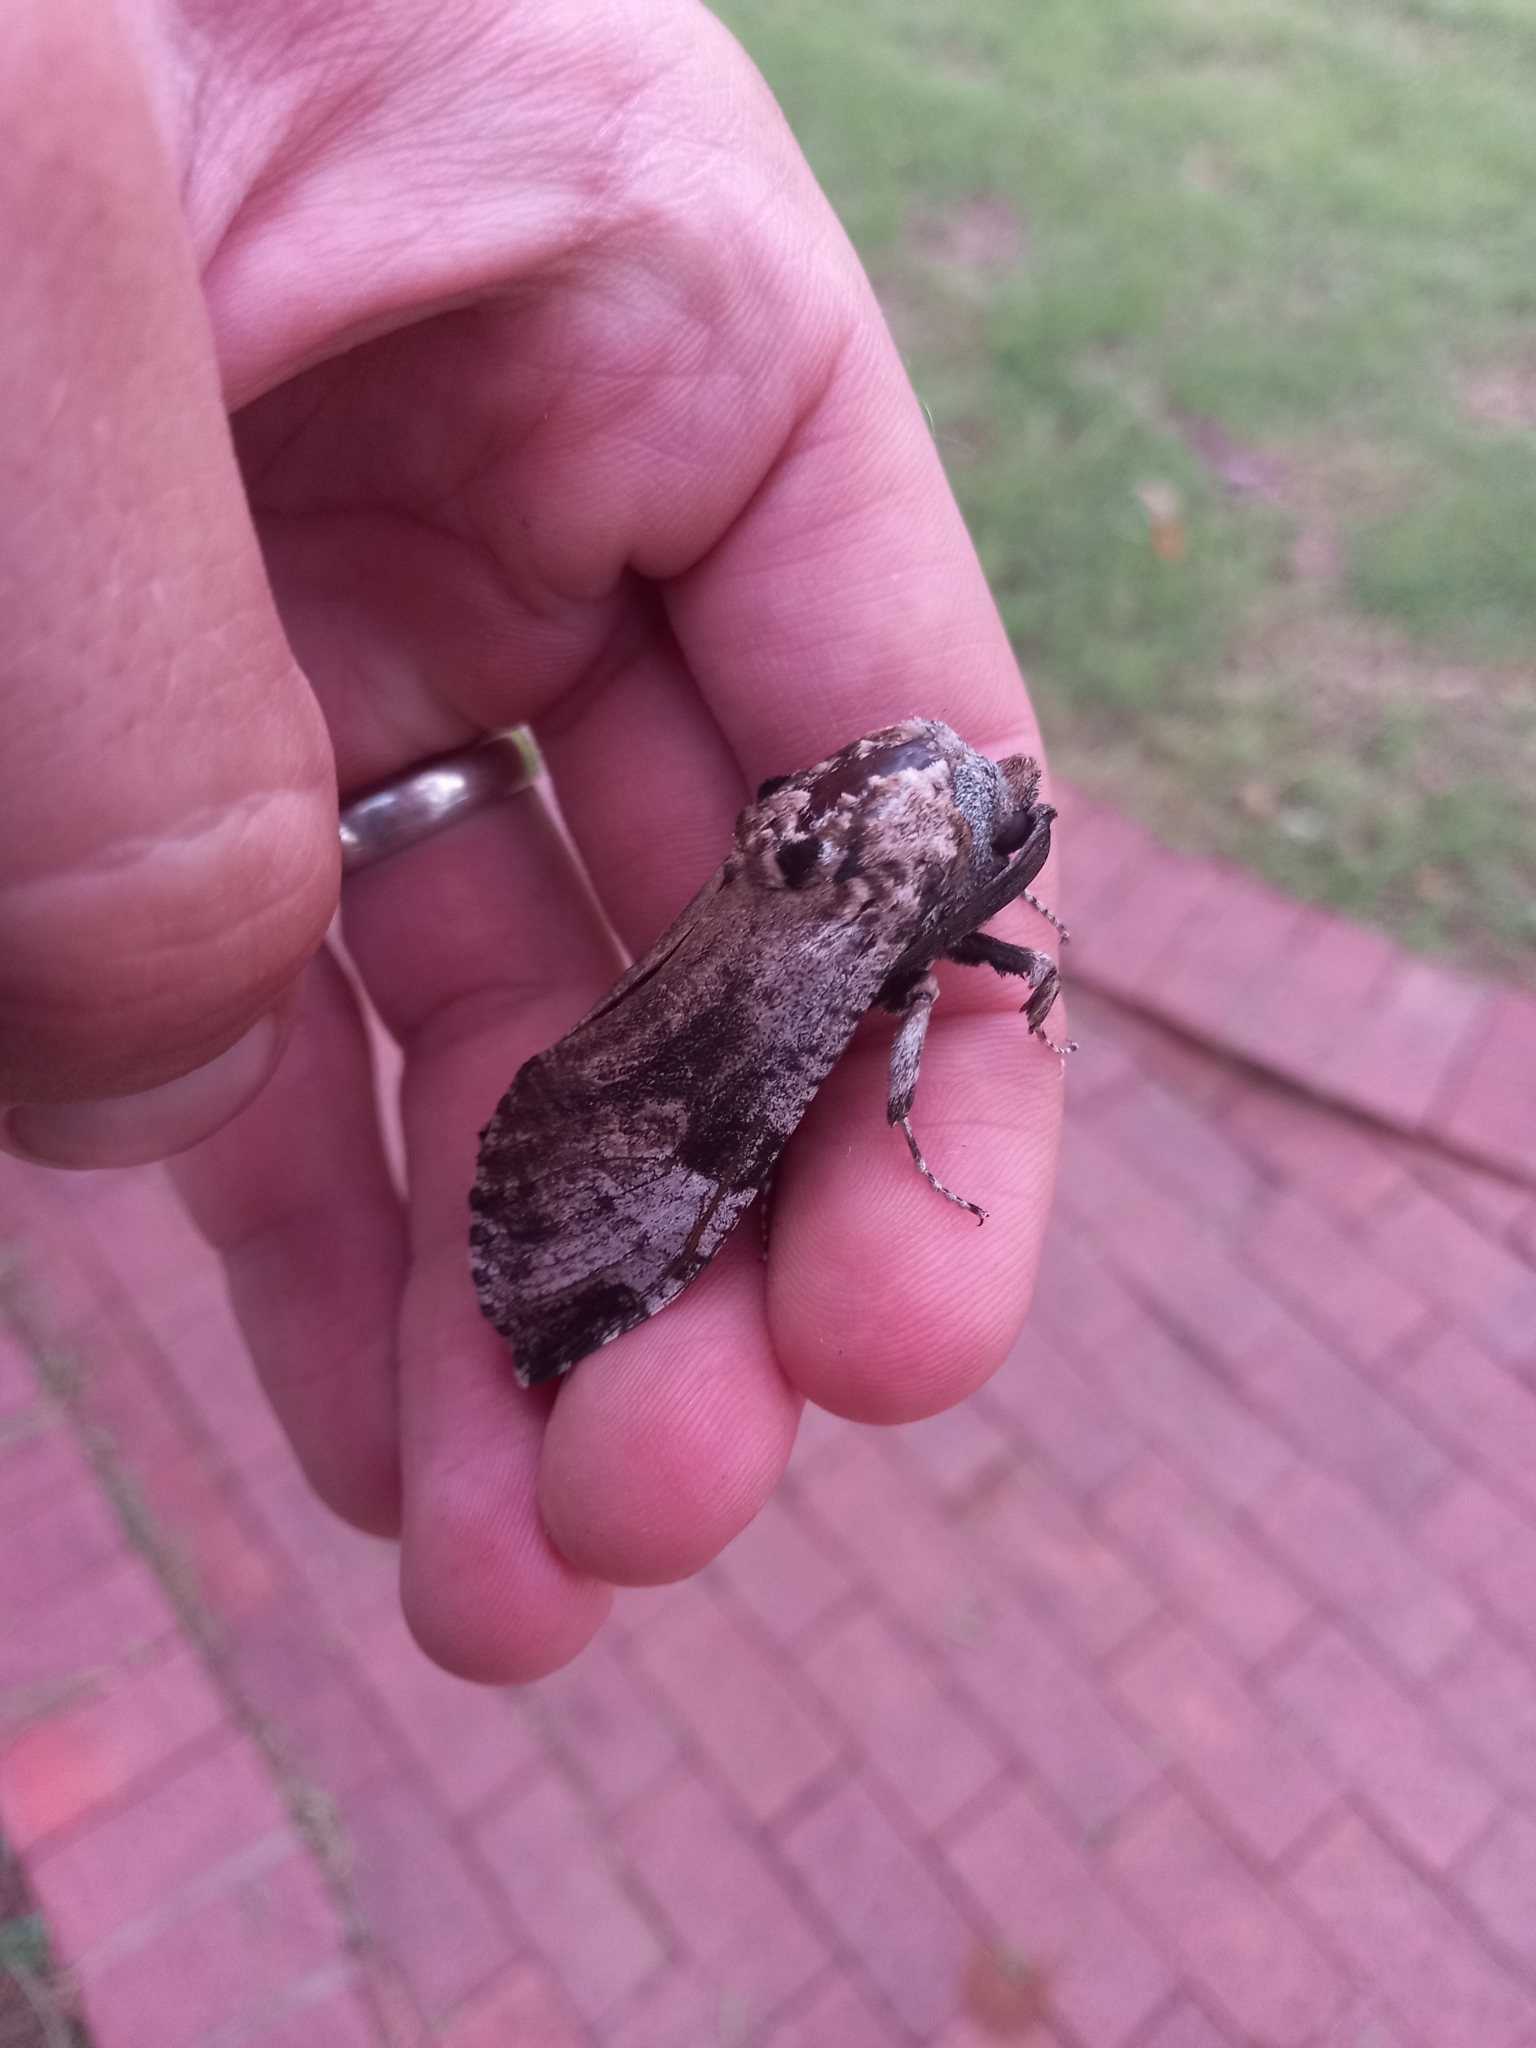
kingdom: Animalia
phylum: Arthropoda
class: Insecta
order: Lepidoptera
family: Cossidae
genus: Macrocossus
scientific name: Macrocossus toluminus
